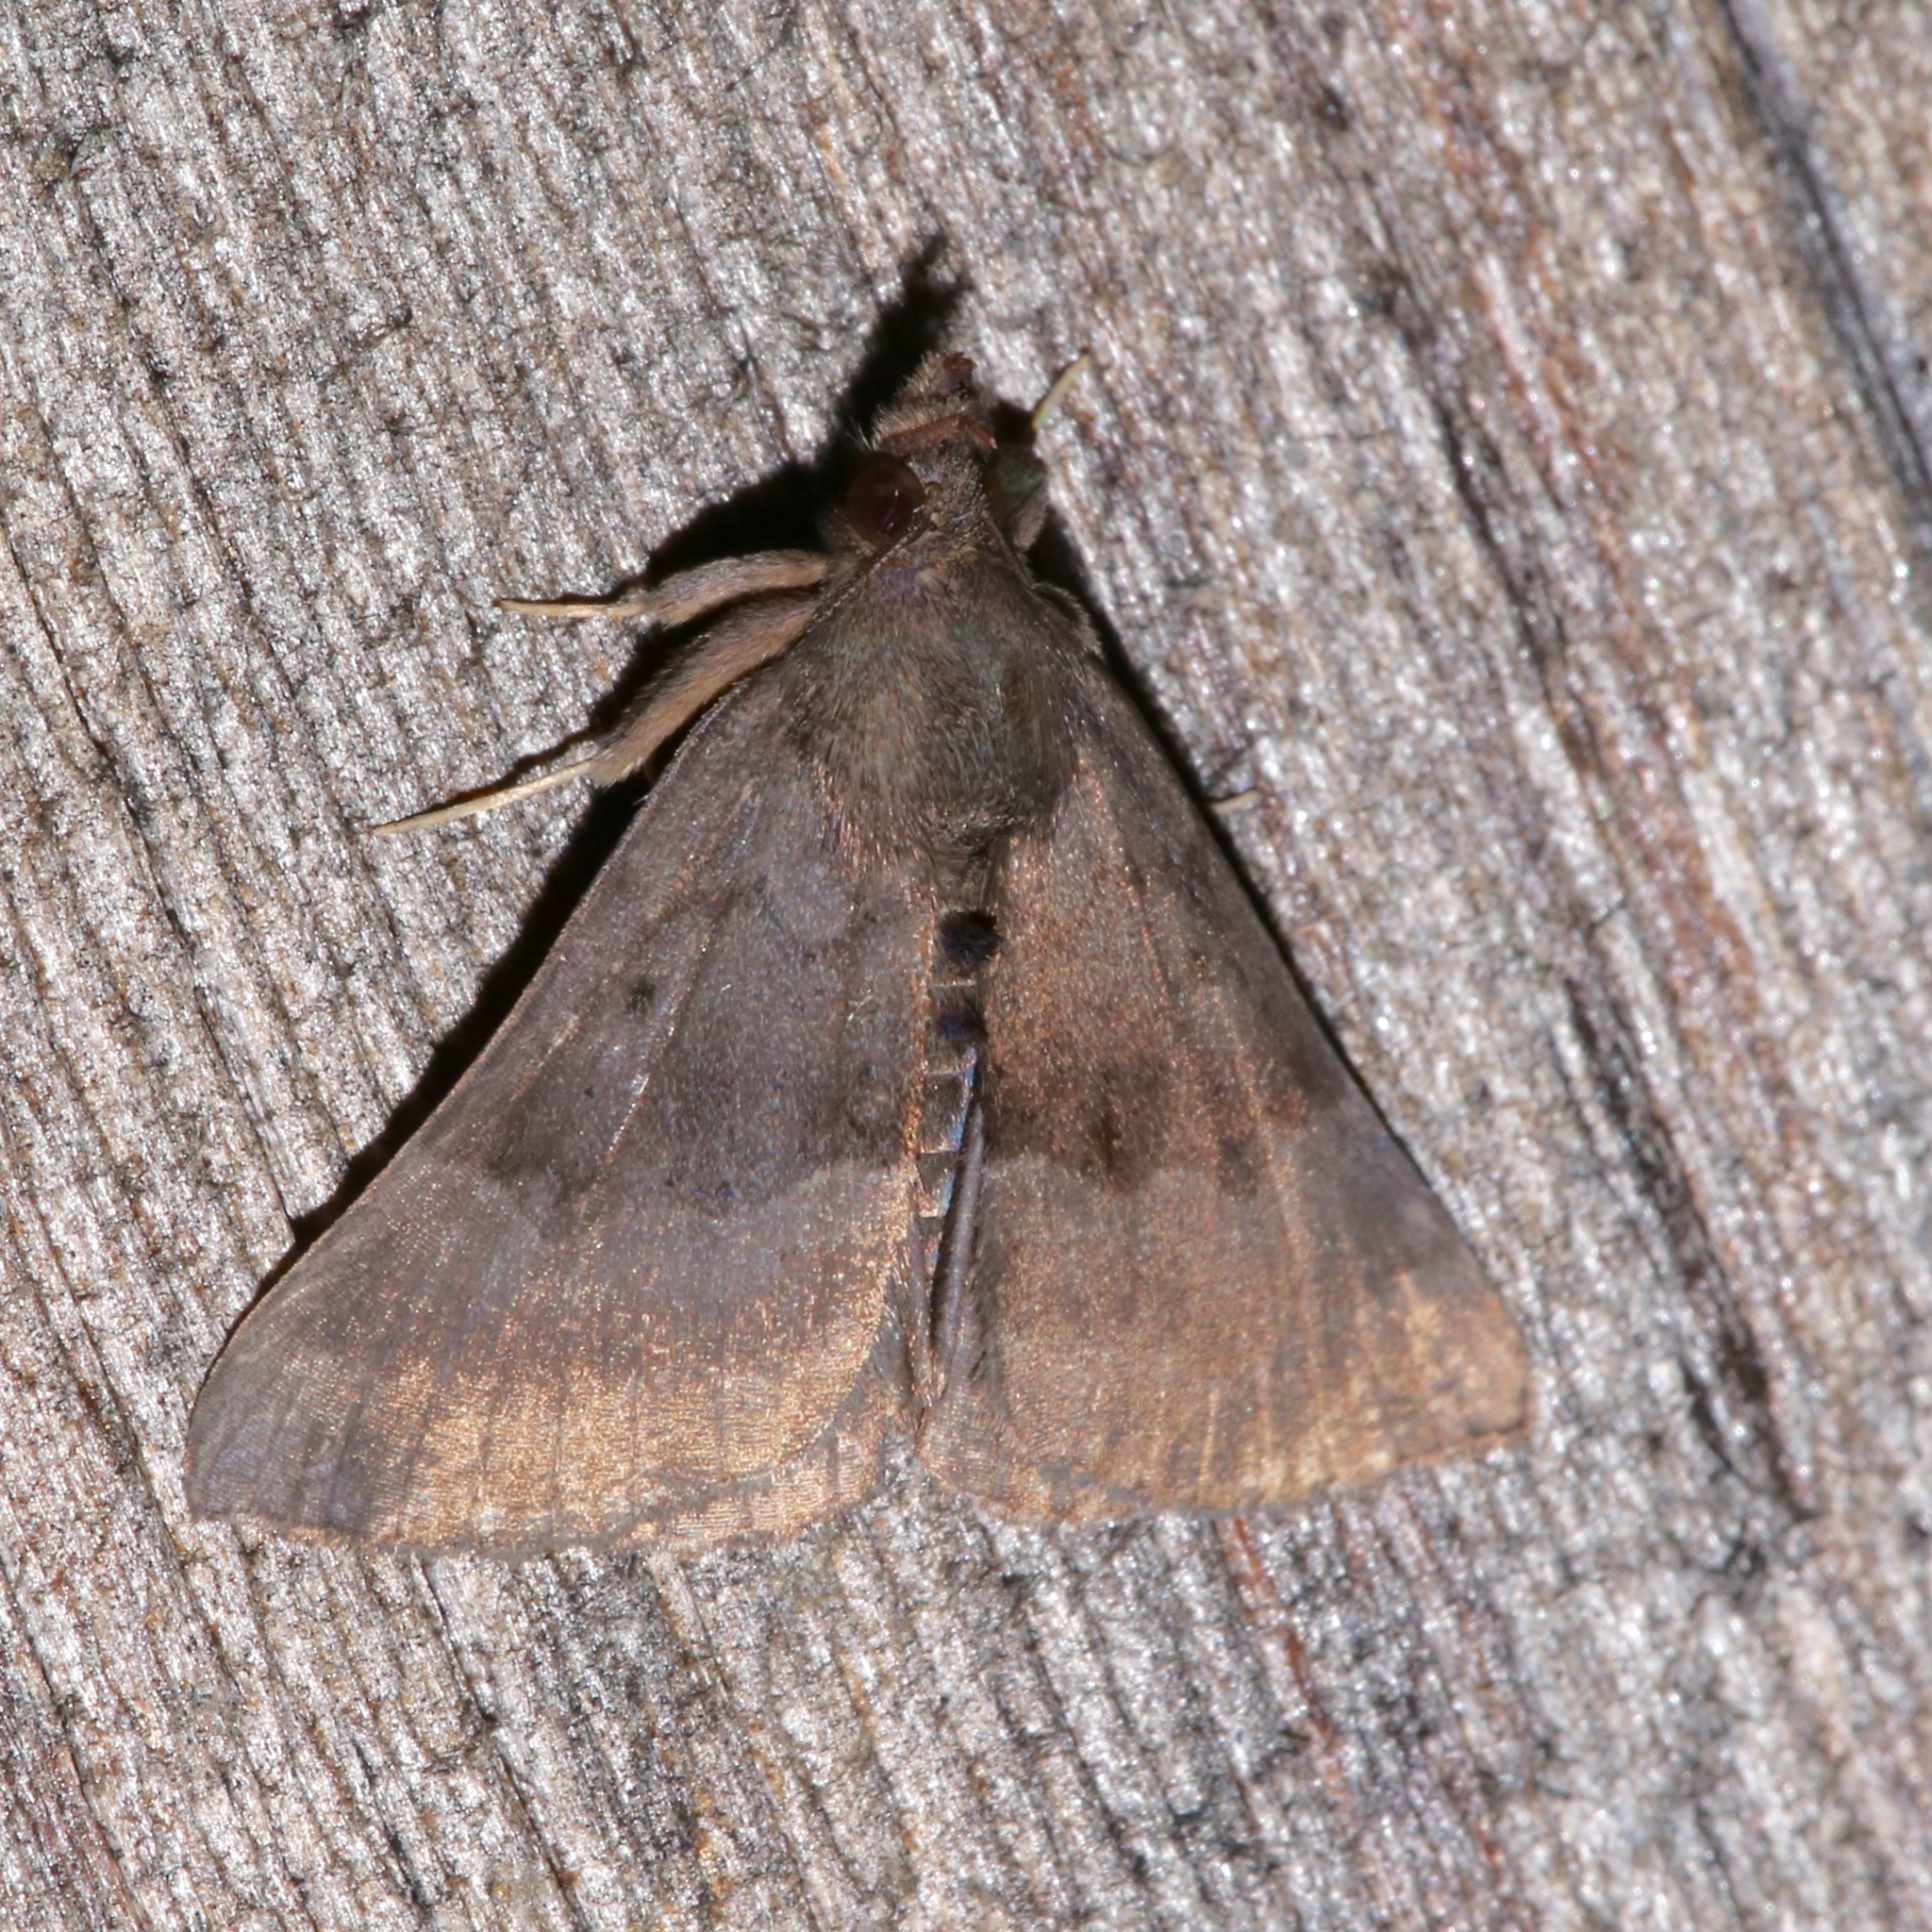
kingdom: Animalia
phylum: Arthropoda
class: Insecta
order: Lepidoptera
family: Erebidae
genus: Hypena
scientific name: Hypena madefactalis
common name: Gray-edged snout
